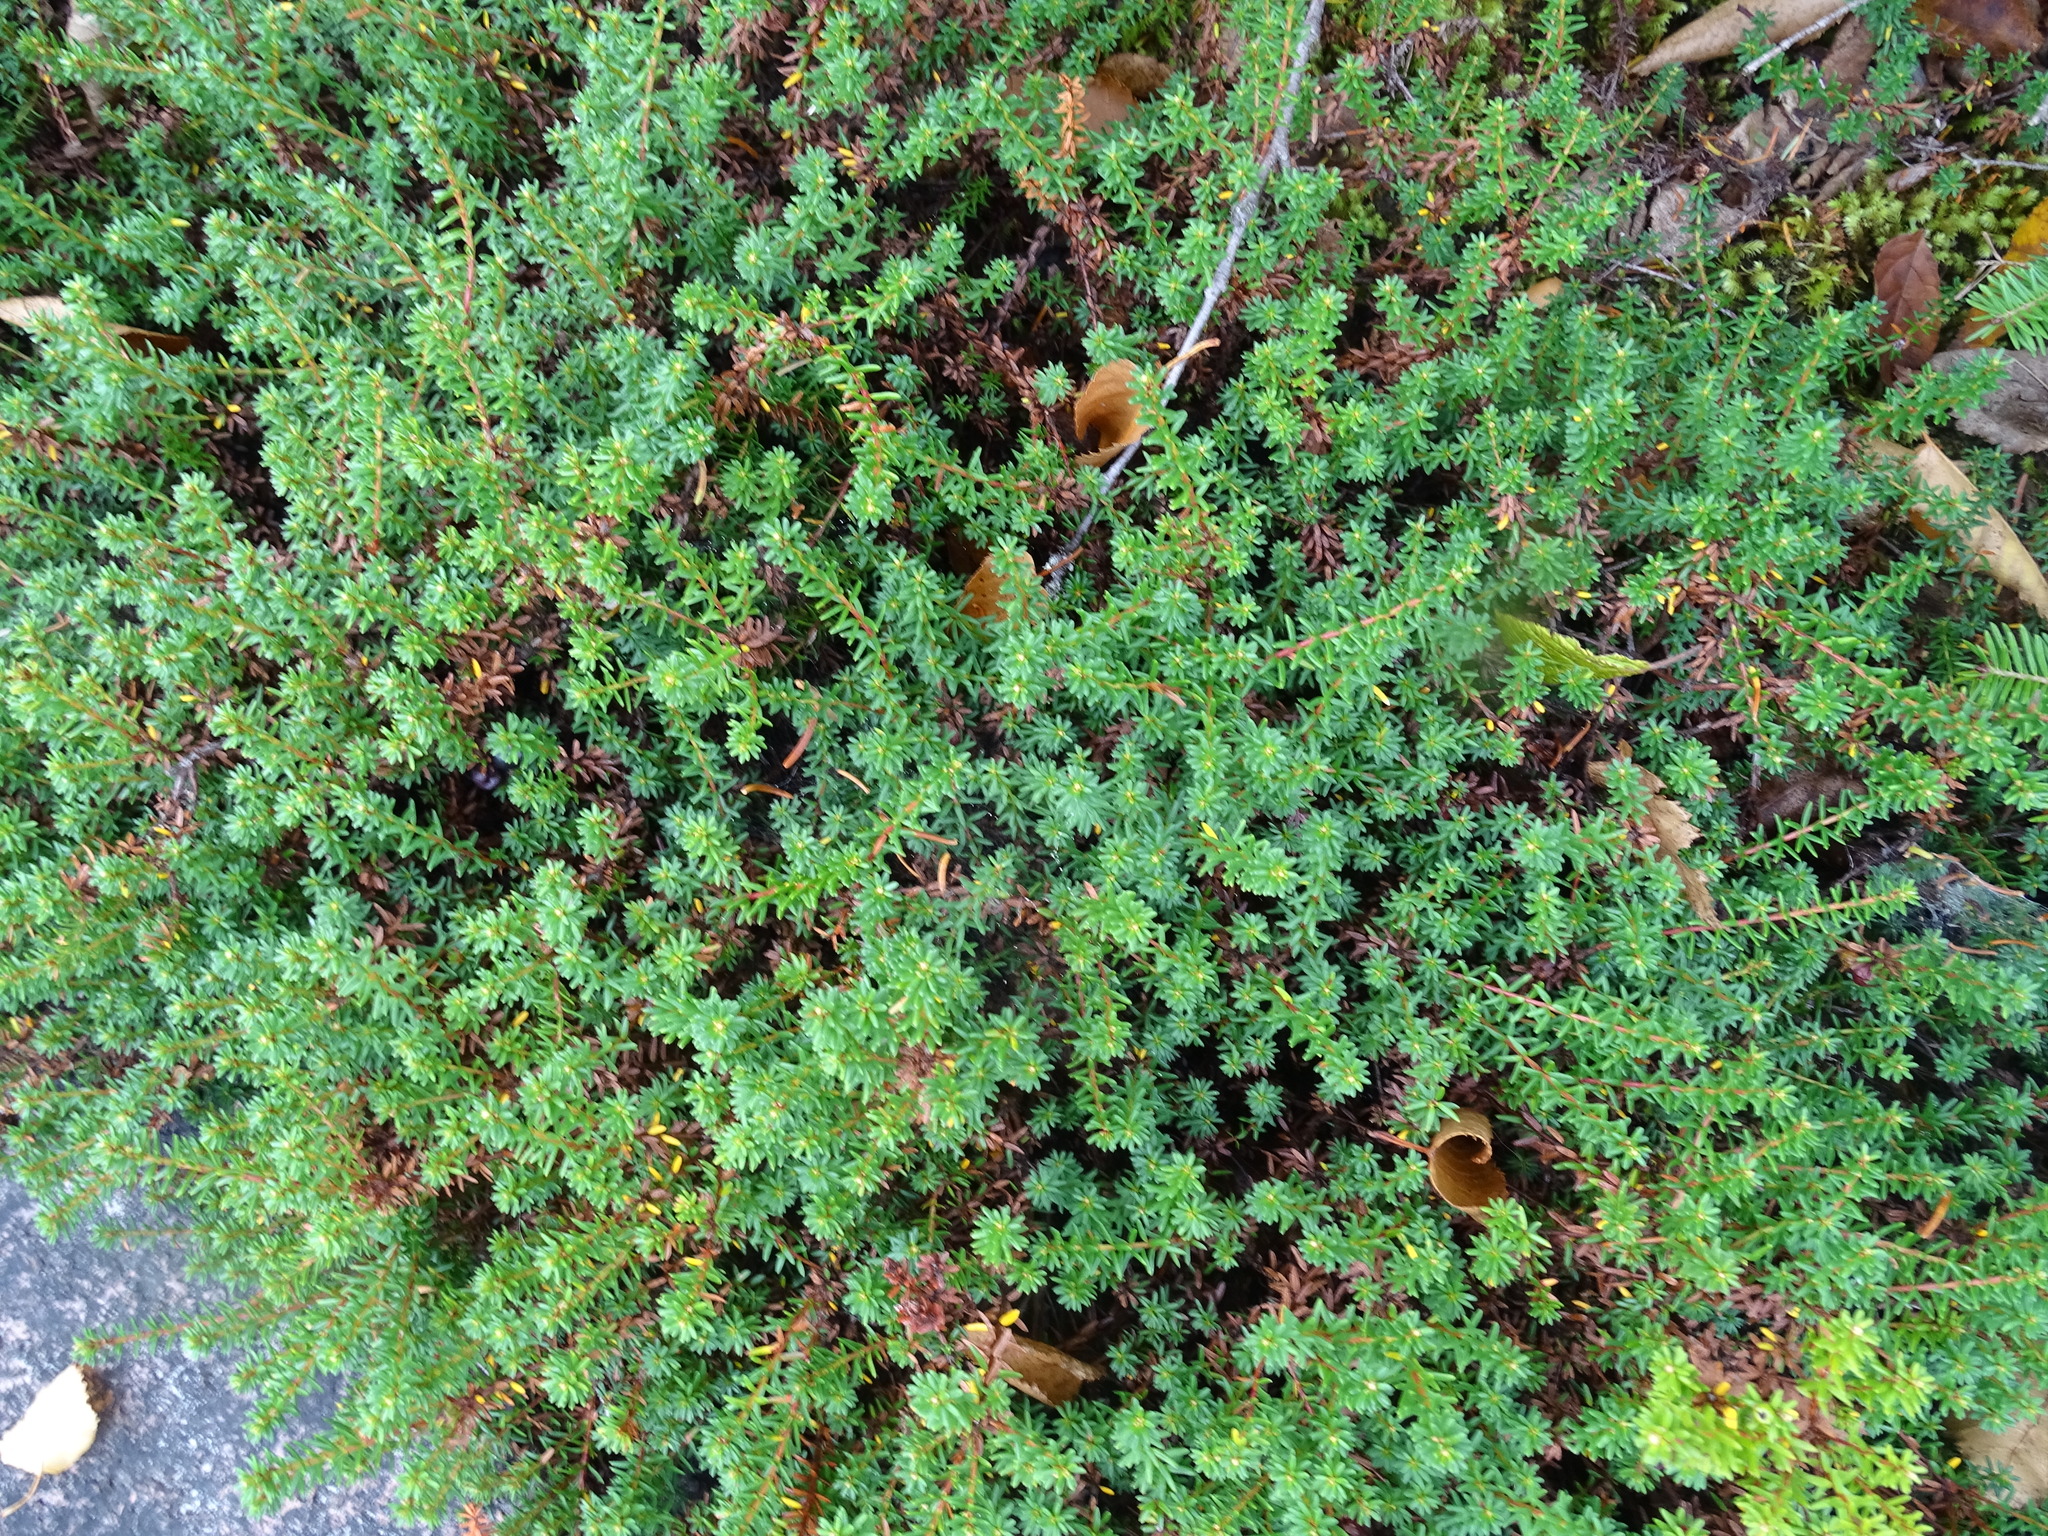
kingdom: Plantae
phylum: Tracheophyta
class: Magnoliopsida
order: Ericales
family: Ericaceae
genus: Empetrum
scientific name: Empetrum nigrum
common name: Black crowberry
